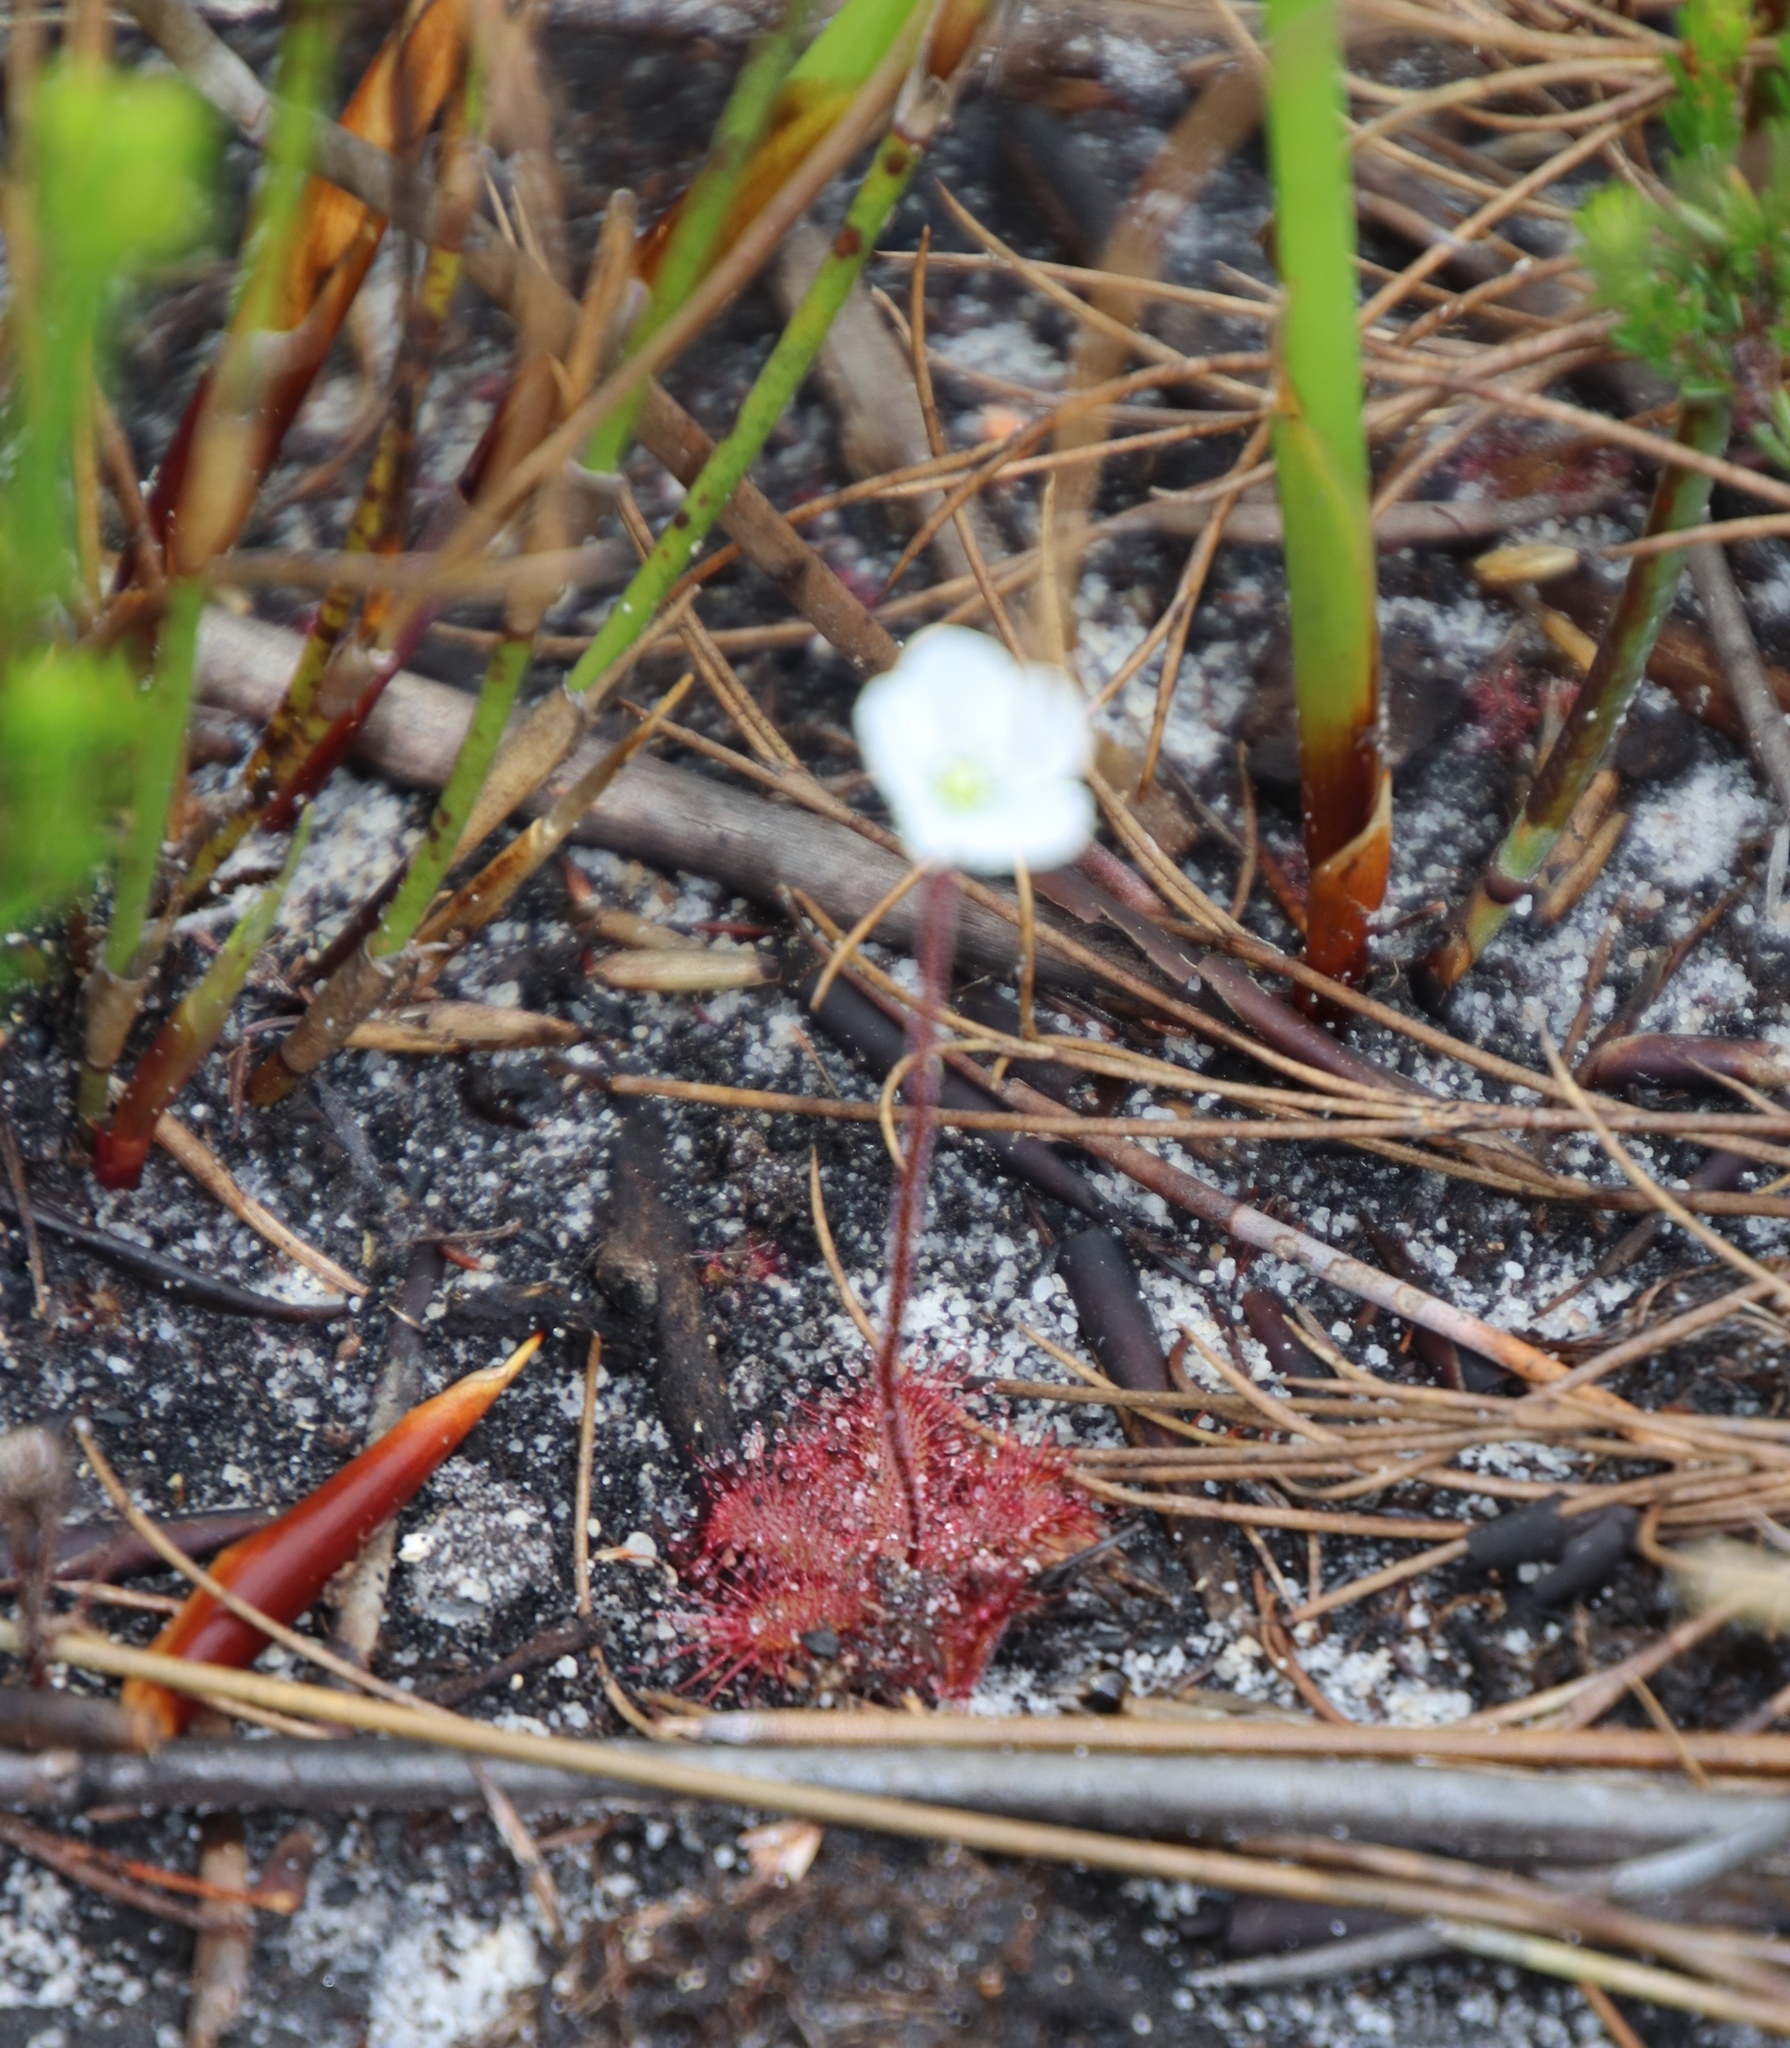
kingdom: Plantae
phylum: Tracheophyta
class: Magnoliopsida
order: Caryophyllales
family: Droseraceae
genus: Drosera
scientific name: Drosera trinervia
